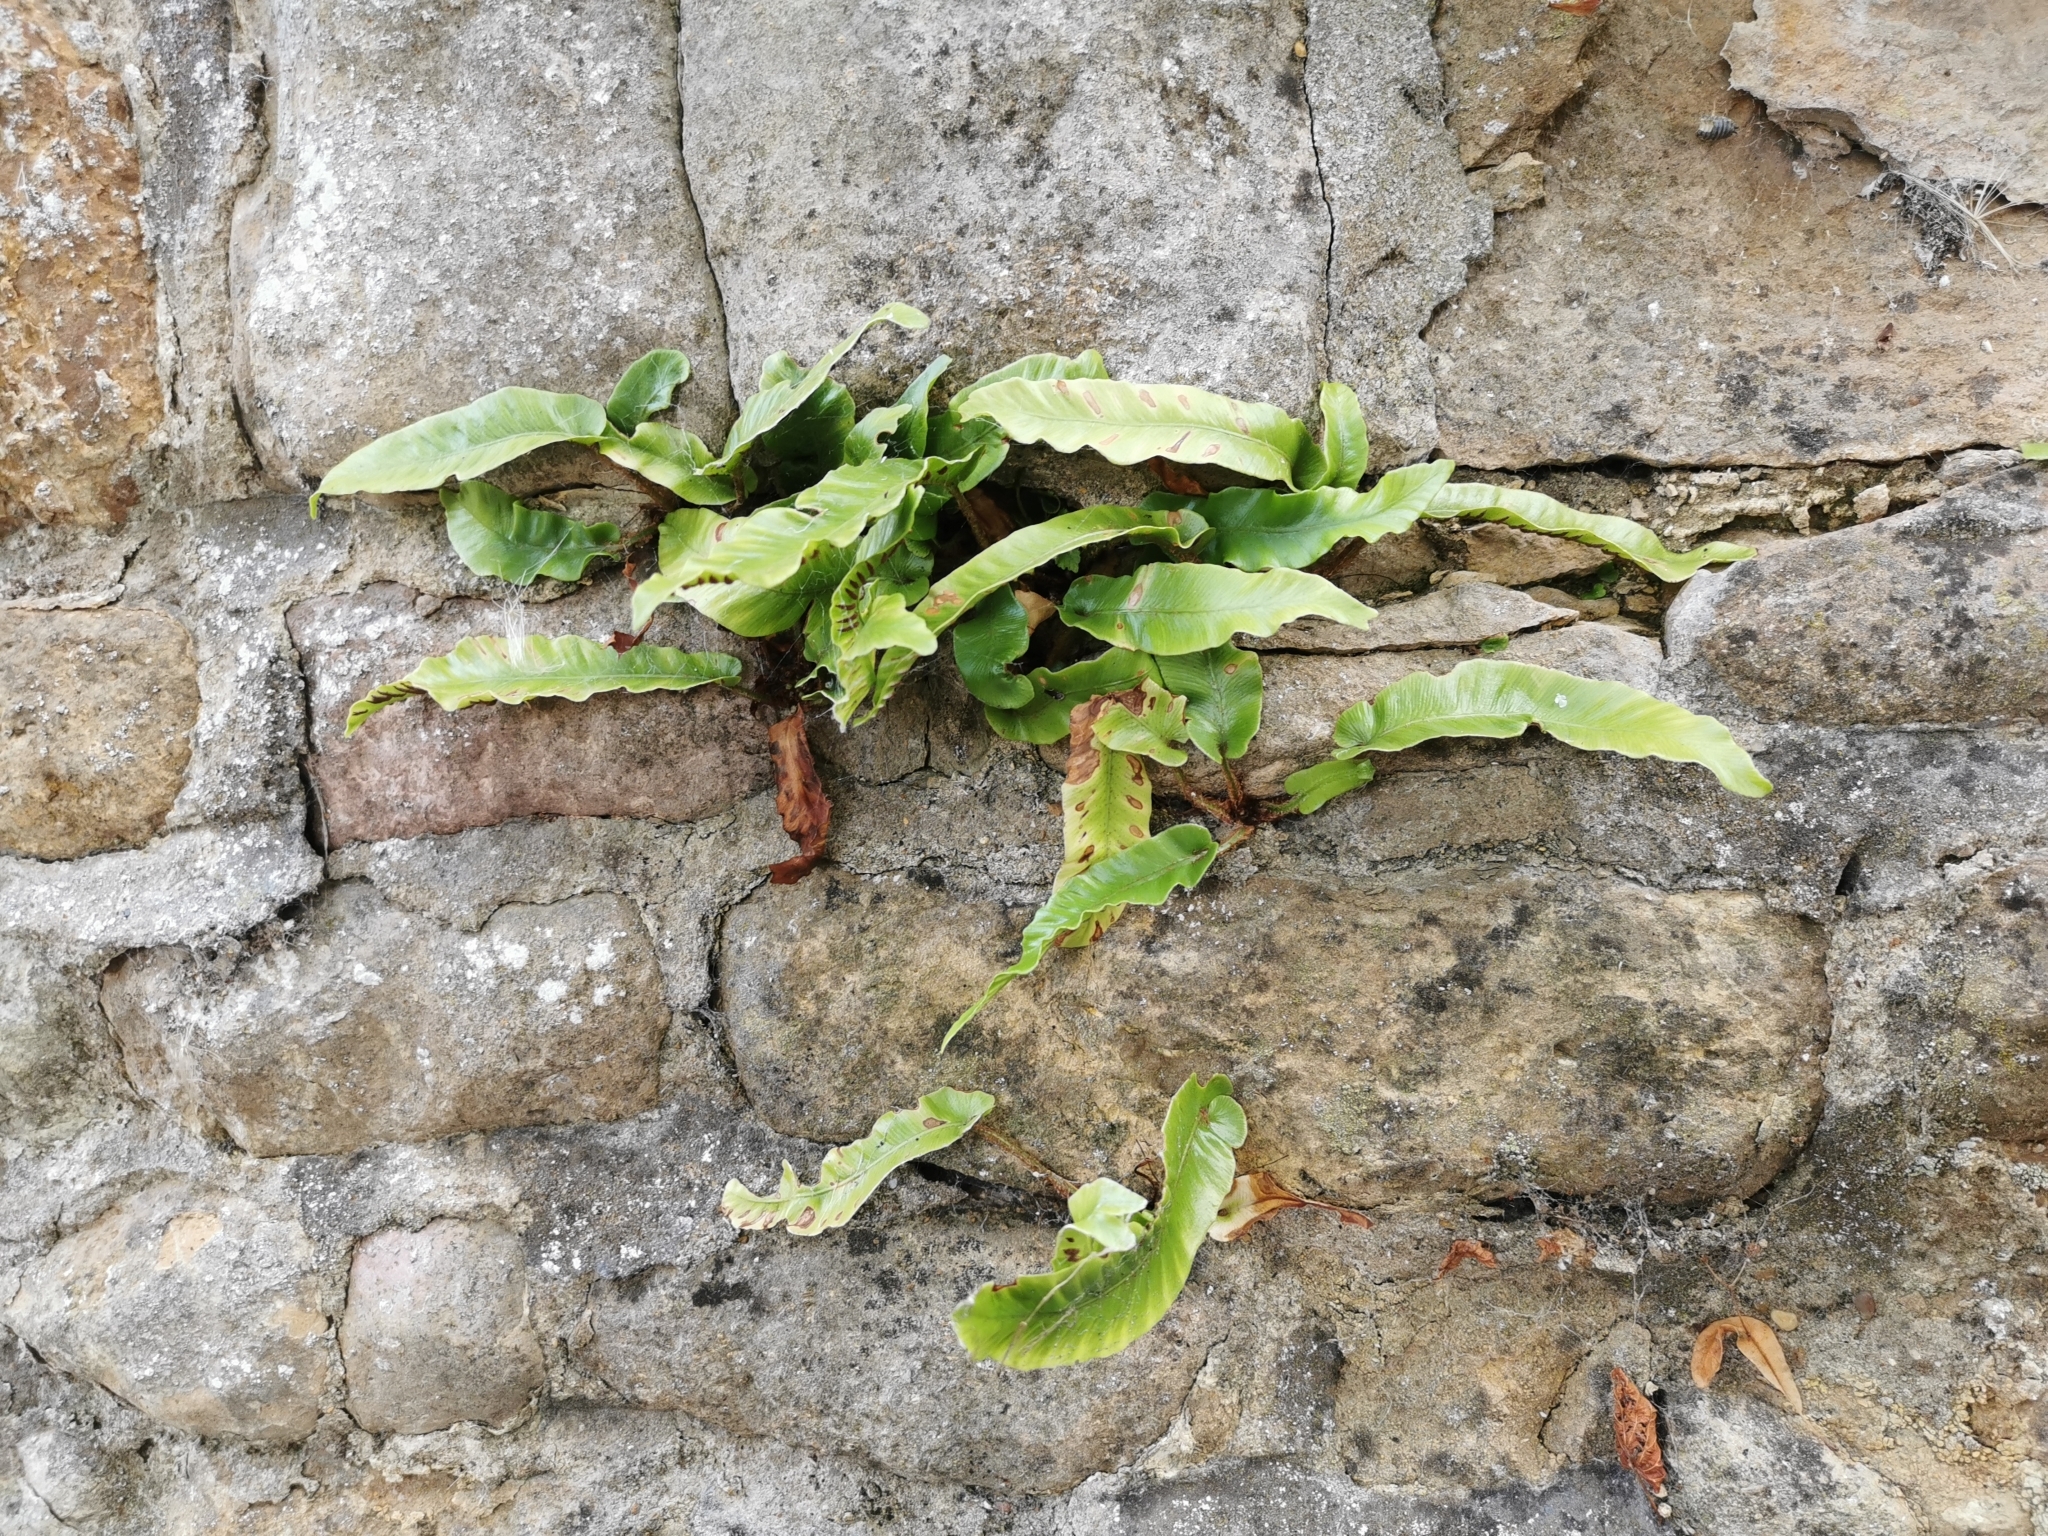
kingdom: Plantae
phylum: Tracheophyta
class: Polypodiopsida
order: Polypodiales
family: Aspleniaceae
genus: Asplenium
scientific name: Asplenium scolopendrium
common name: Hart's-tongue fern
